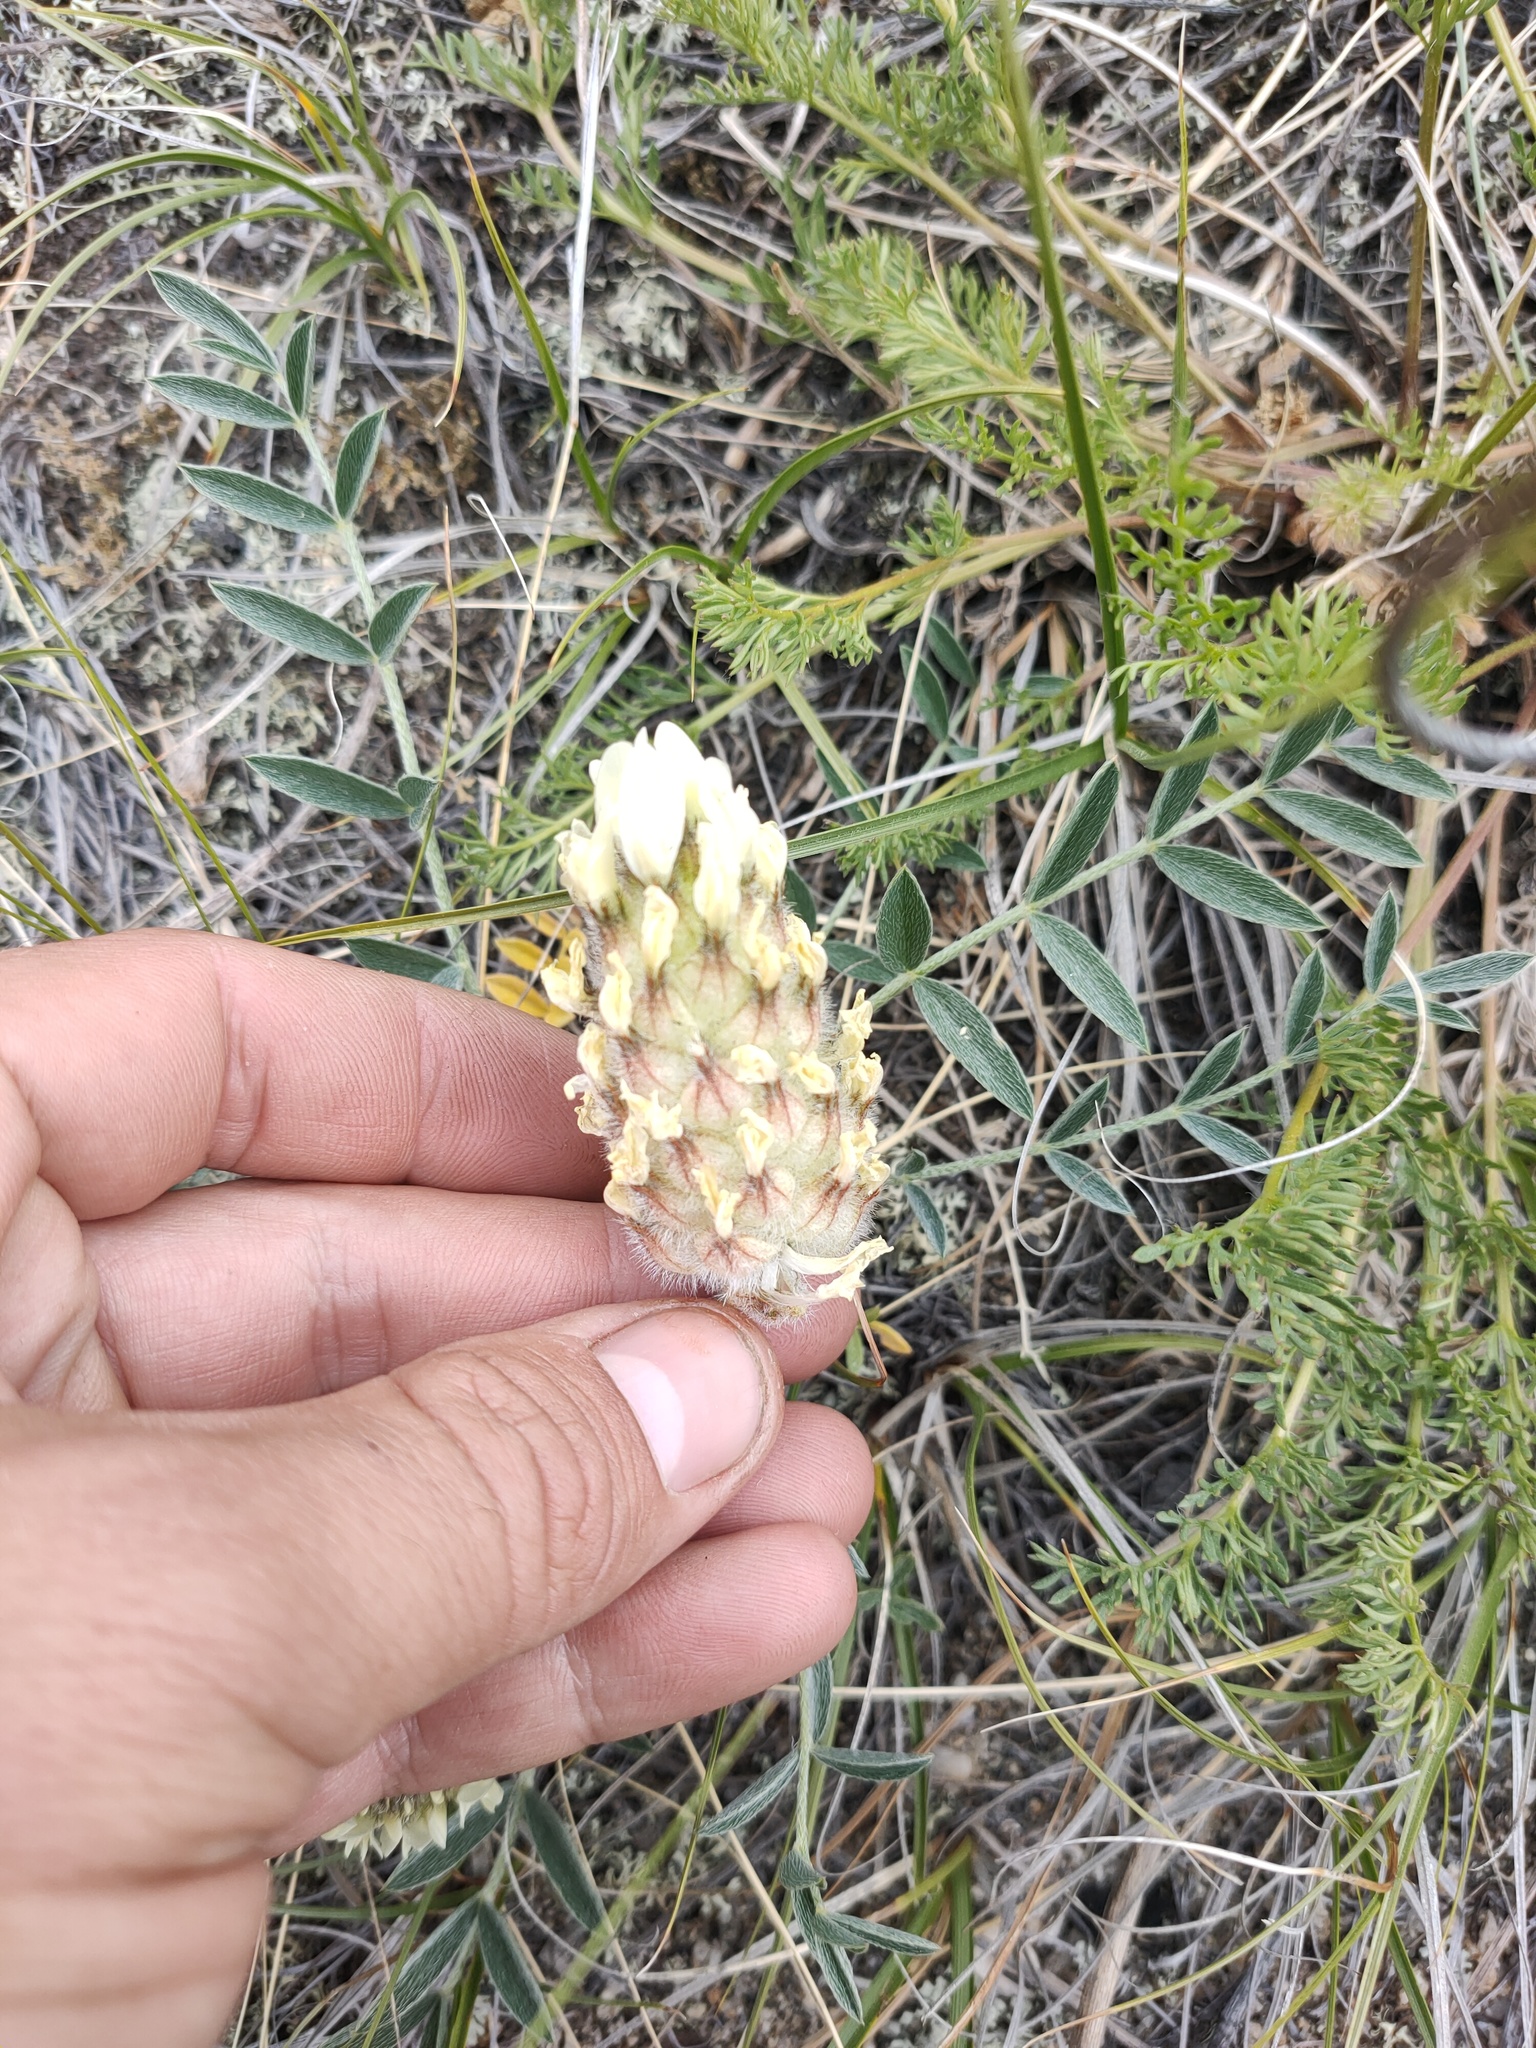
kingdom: Plantae
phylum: Tracheophyta
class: Magnoliopsida
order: Fabales
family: Fabaceae
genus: Astragalus
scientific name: Astragalus lupulinus
